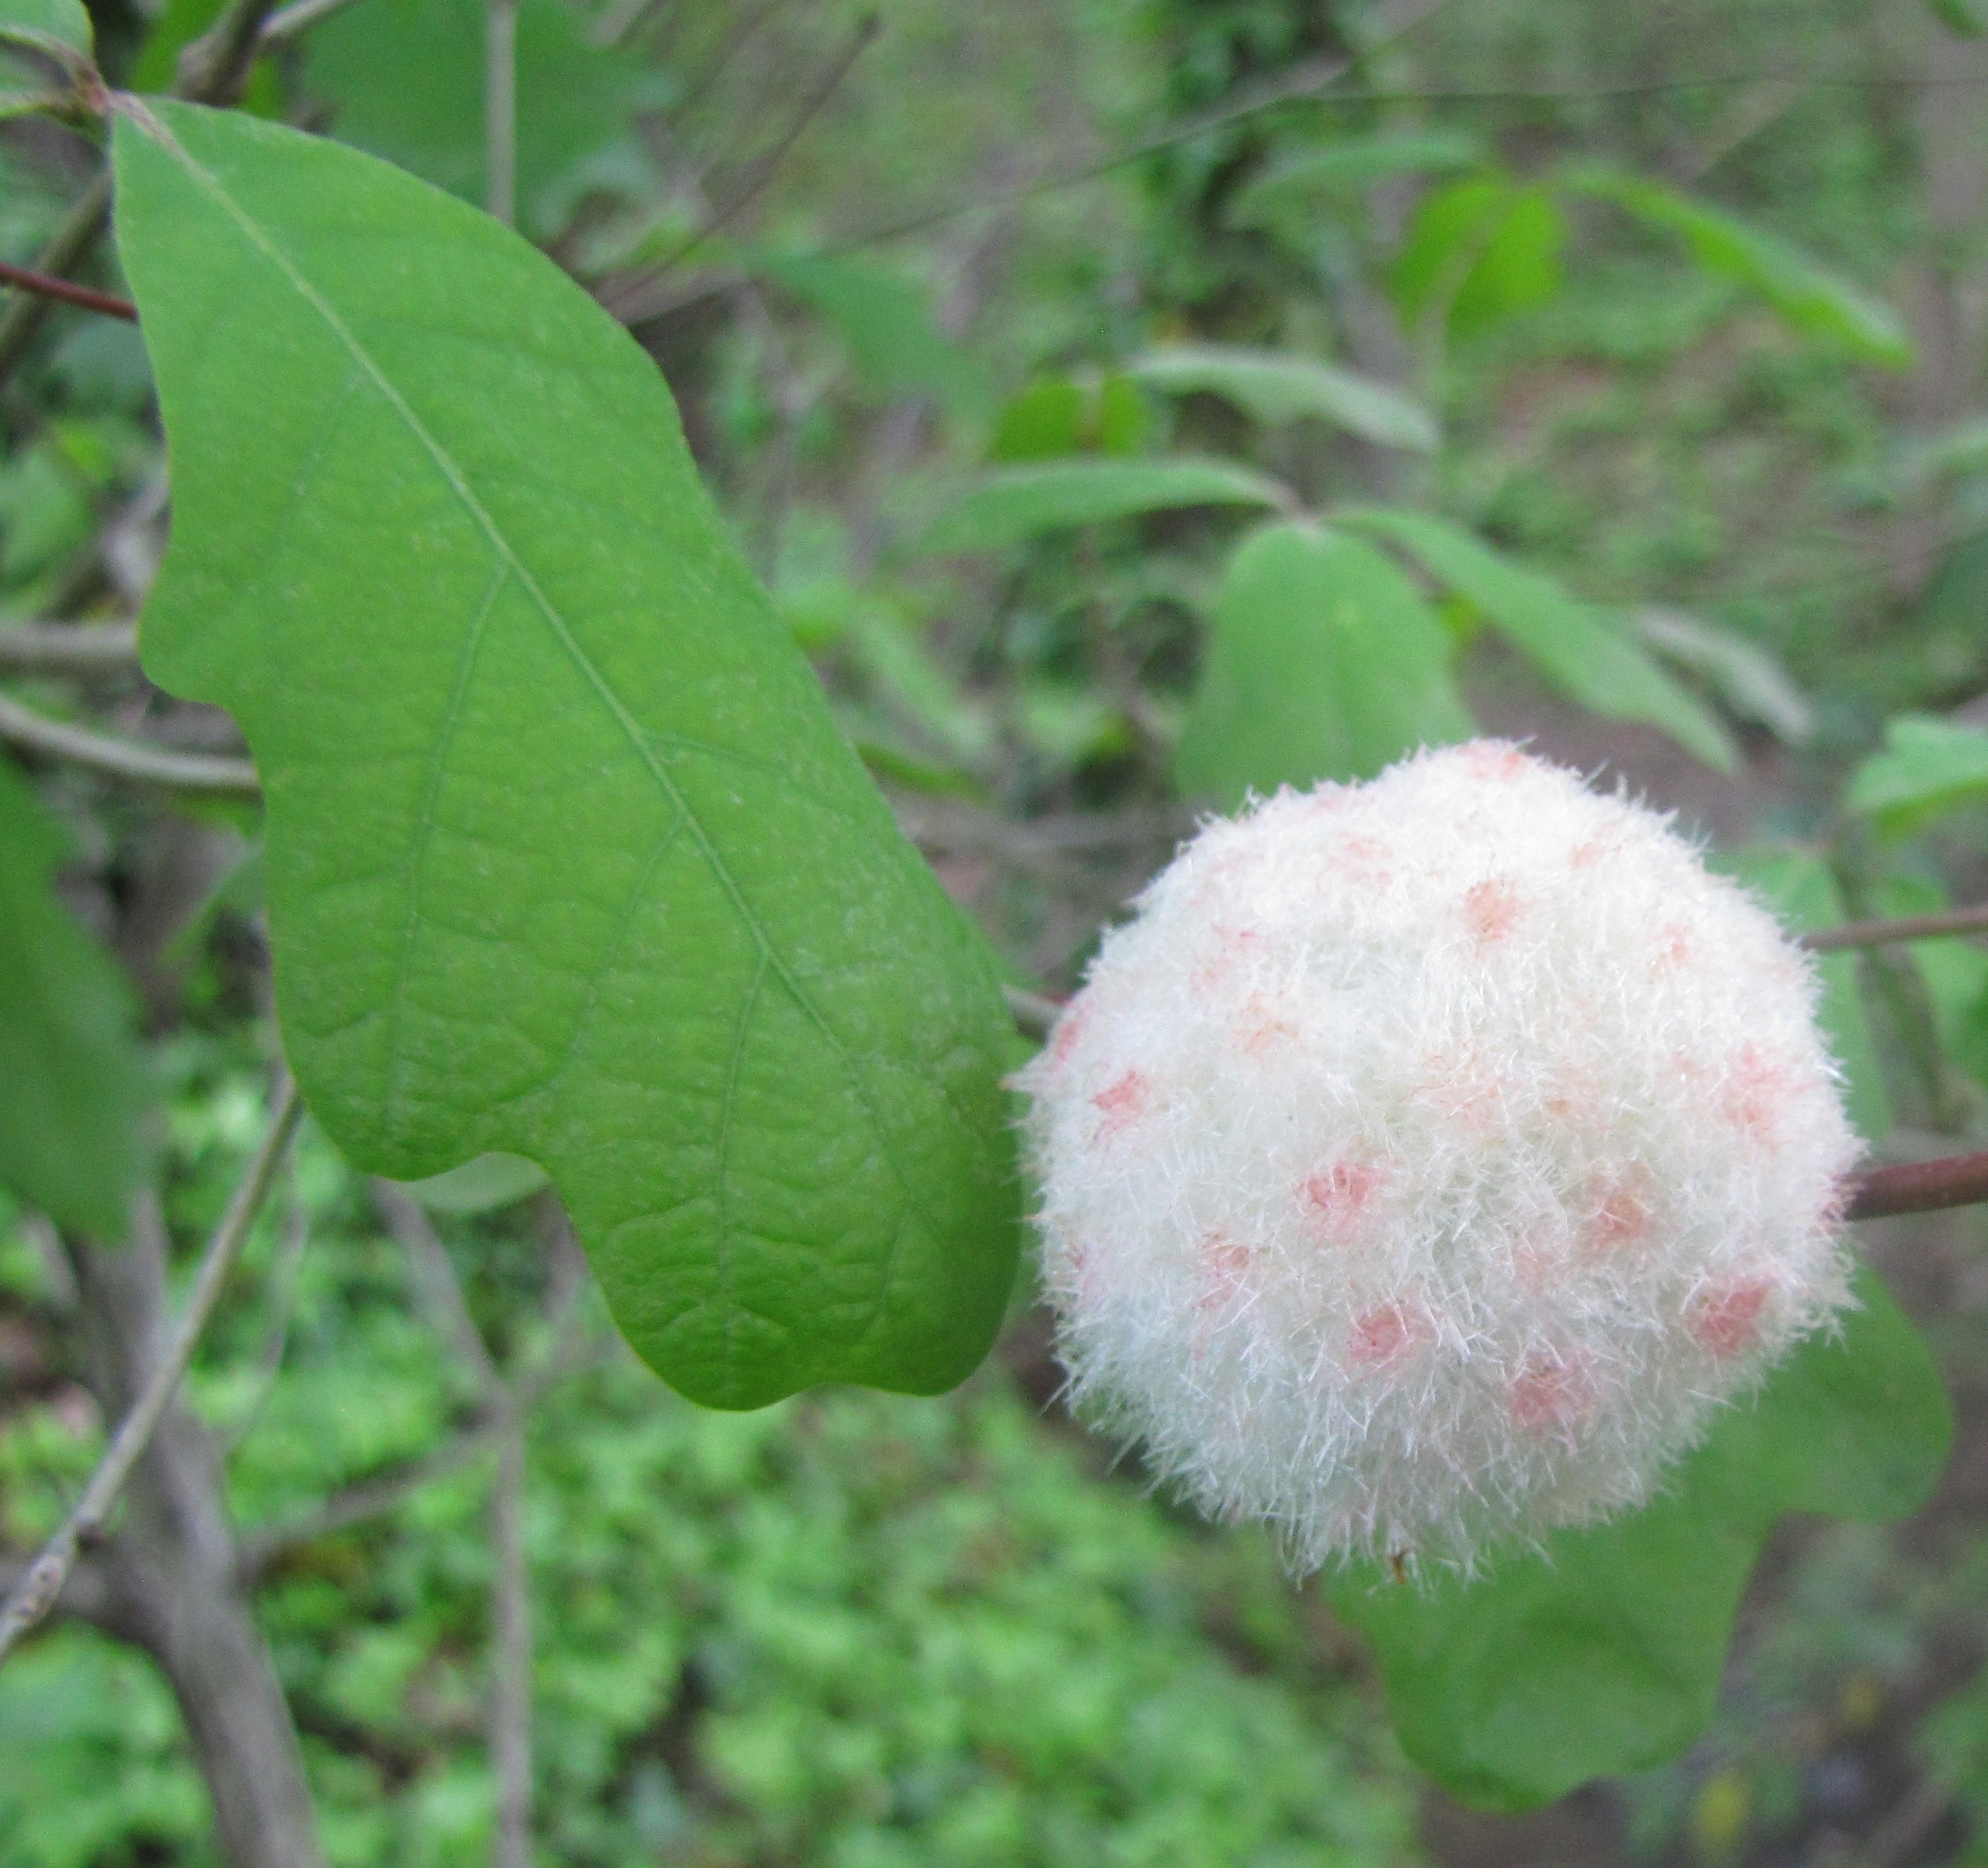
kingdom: Animalia
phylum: Arthropoda
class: Insecta
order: Hymenoptera
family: Cynipidae
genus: Callirhytis
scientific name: Callirhytis
